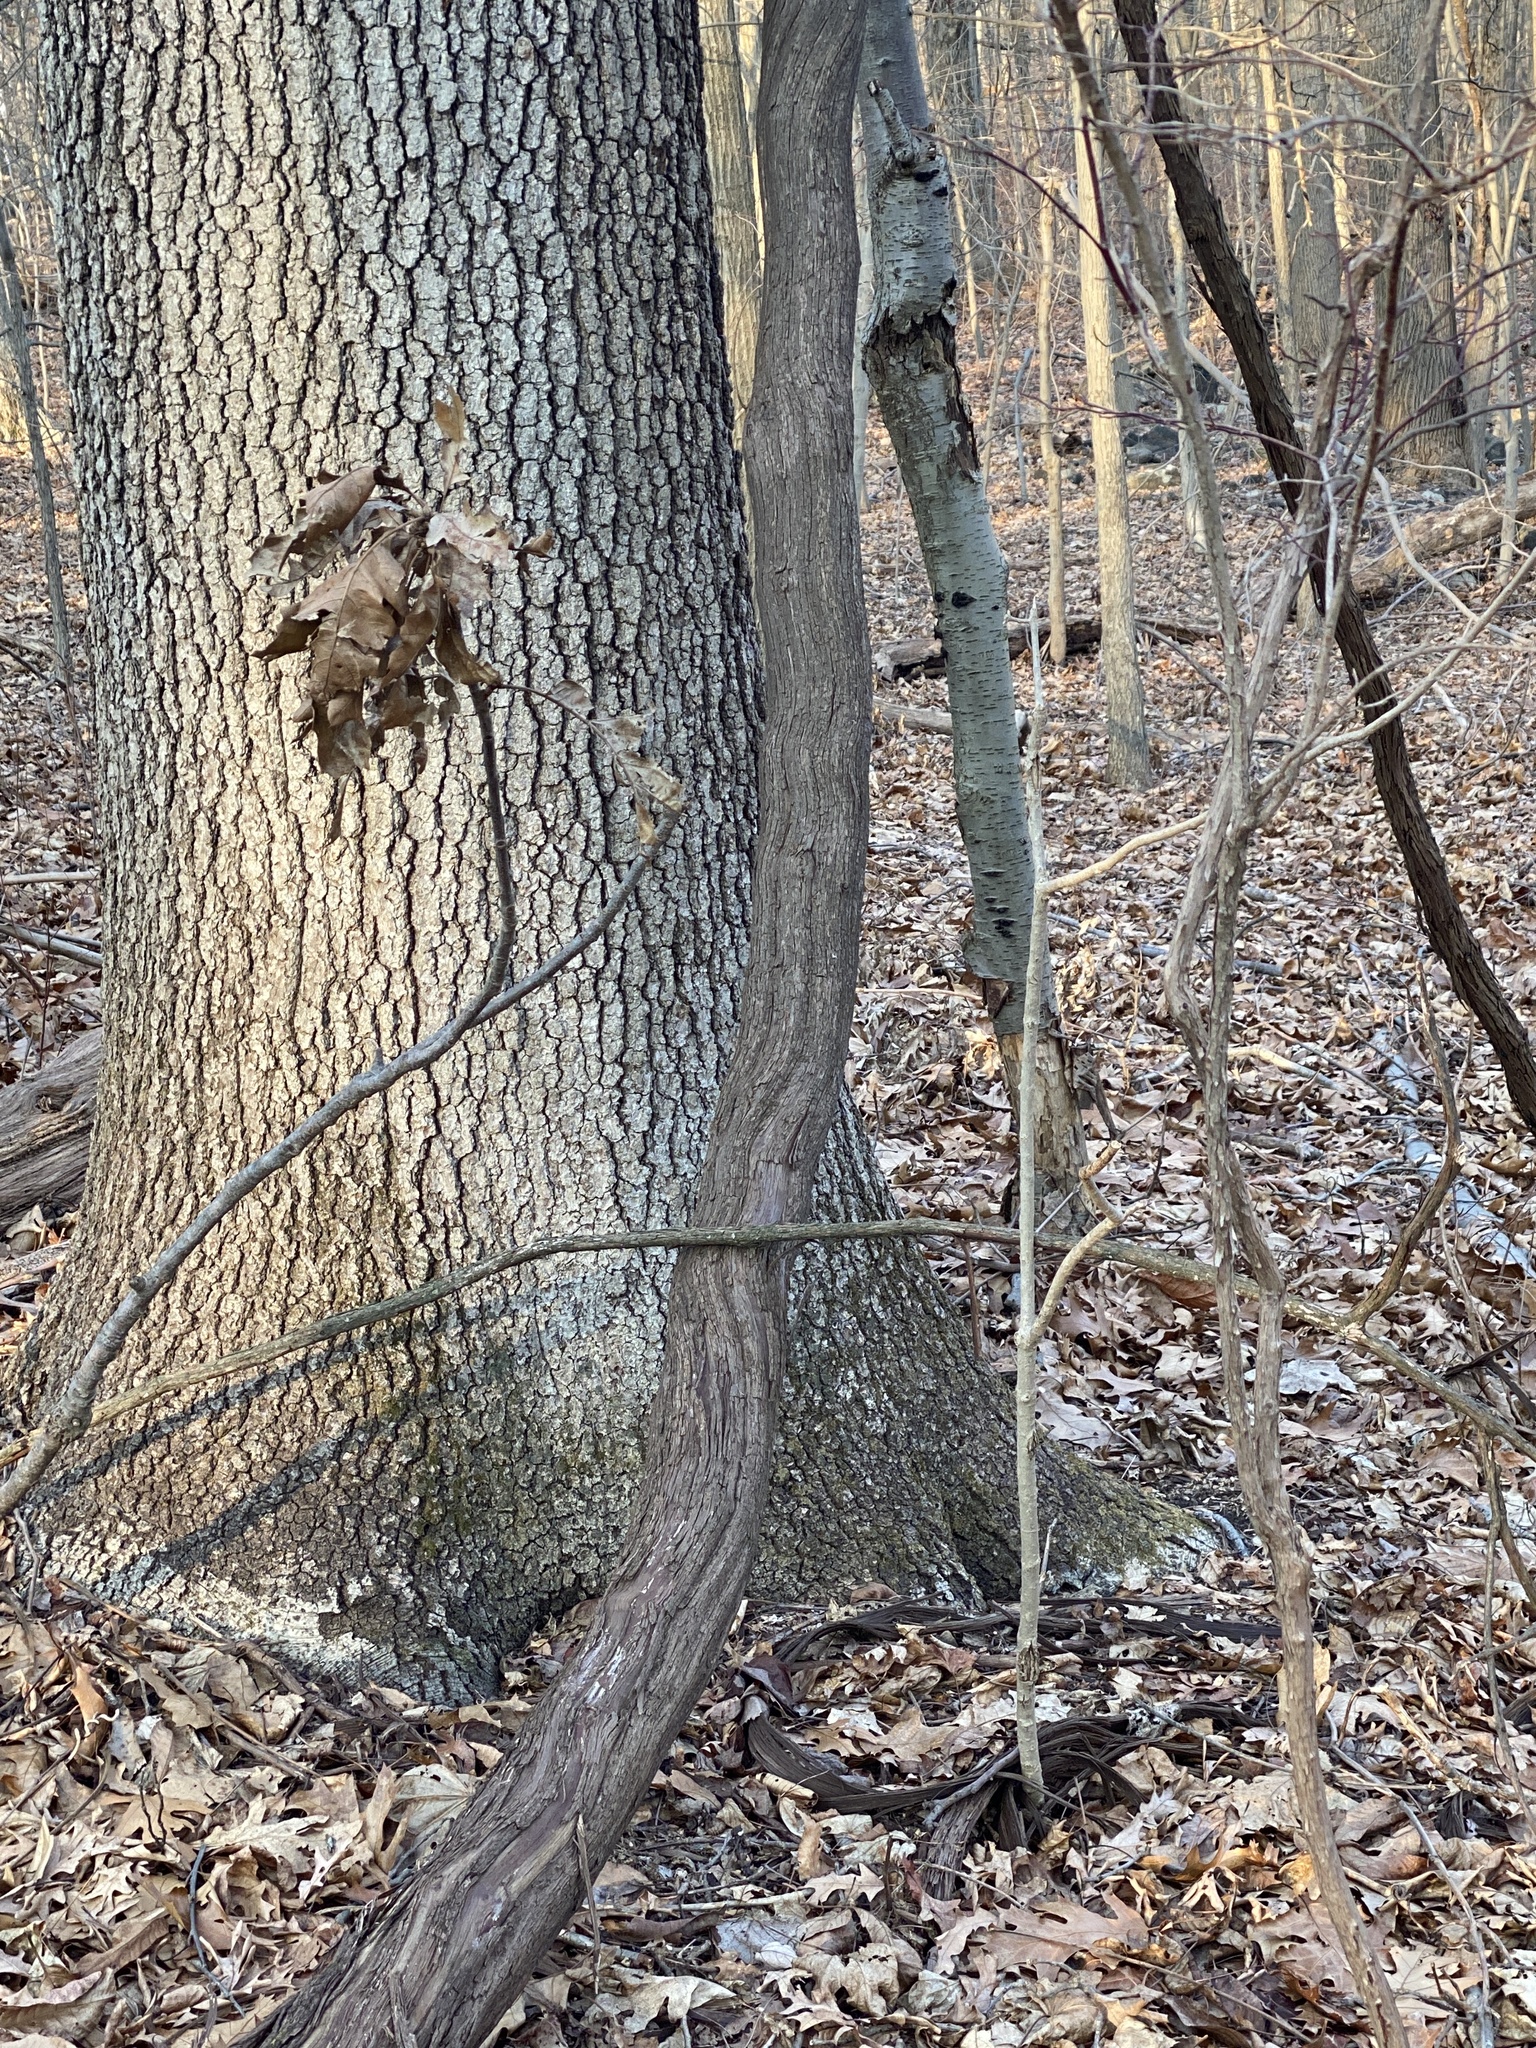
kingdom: Plantae
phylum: Tracheophyta
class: Magnoliopsida
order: Vitales
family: Vitaceae
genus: Vitis
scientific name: Vitis
